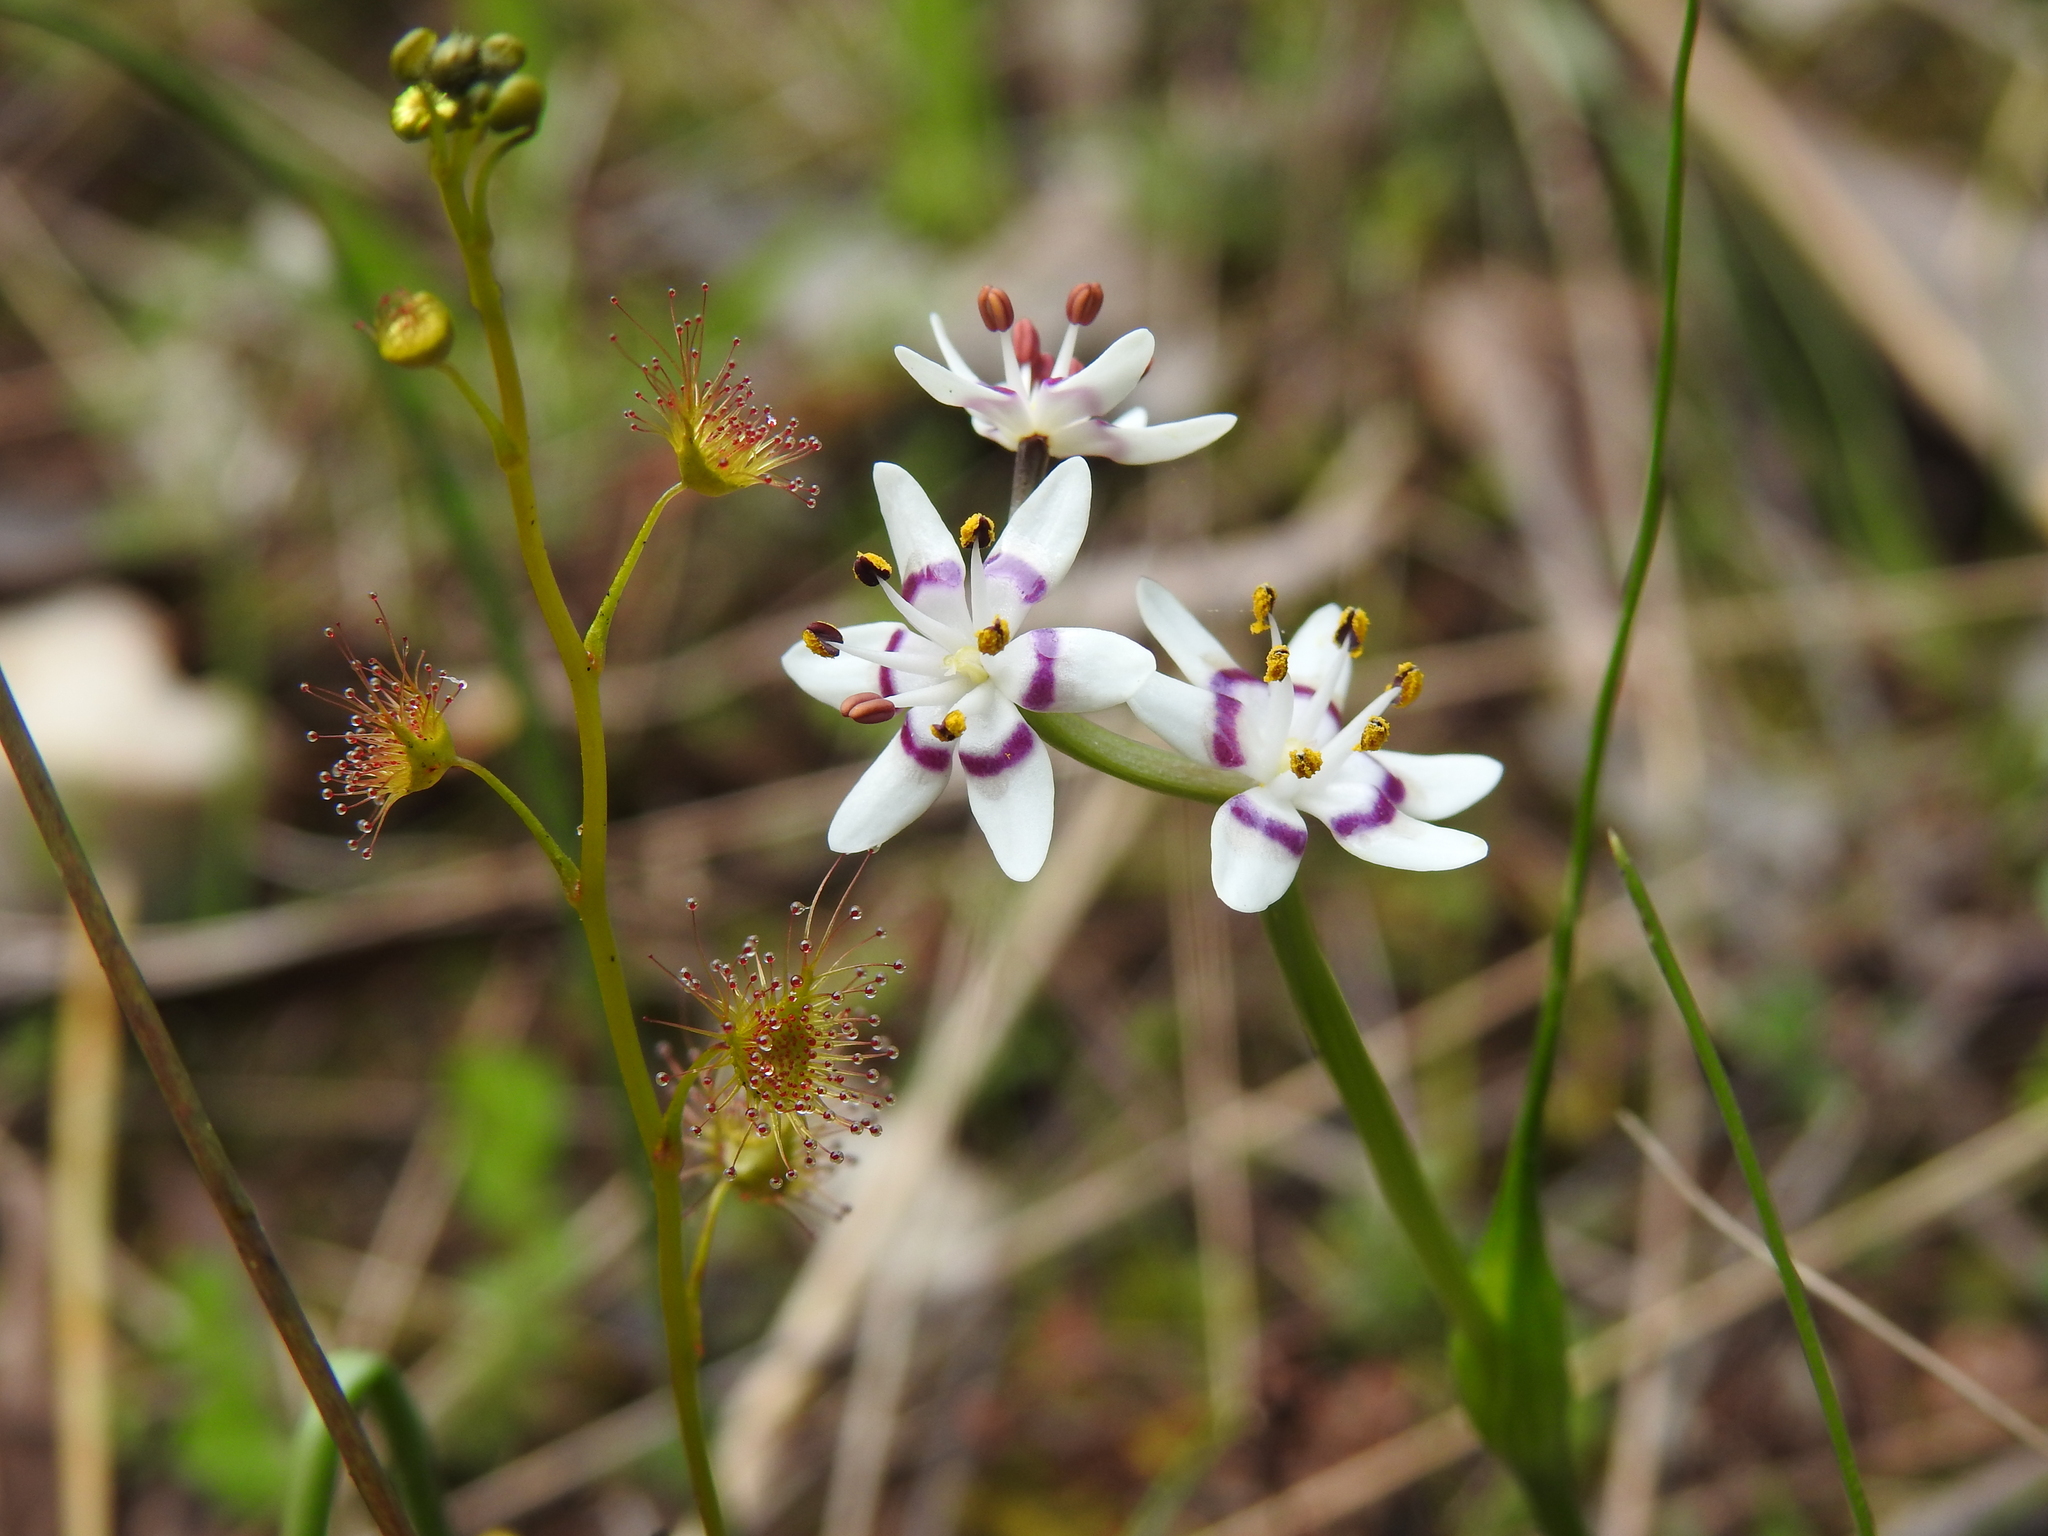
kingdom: Plantae
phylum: Tracheophyta
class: Liliopsida
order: Liliales
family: Colchicaceae
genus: Wurmbea
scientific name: Wurmbea dioica
